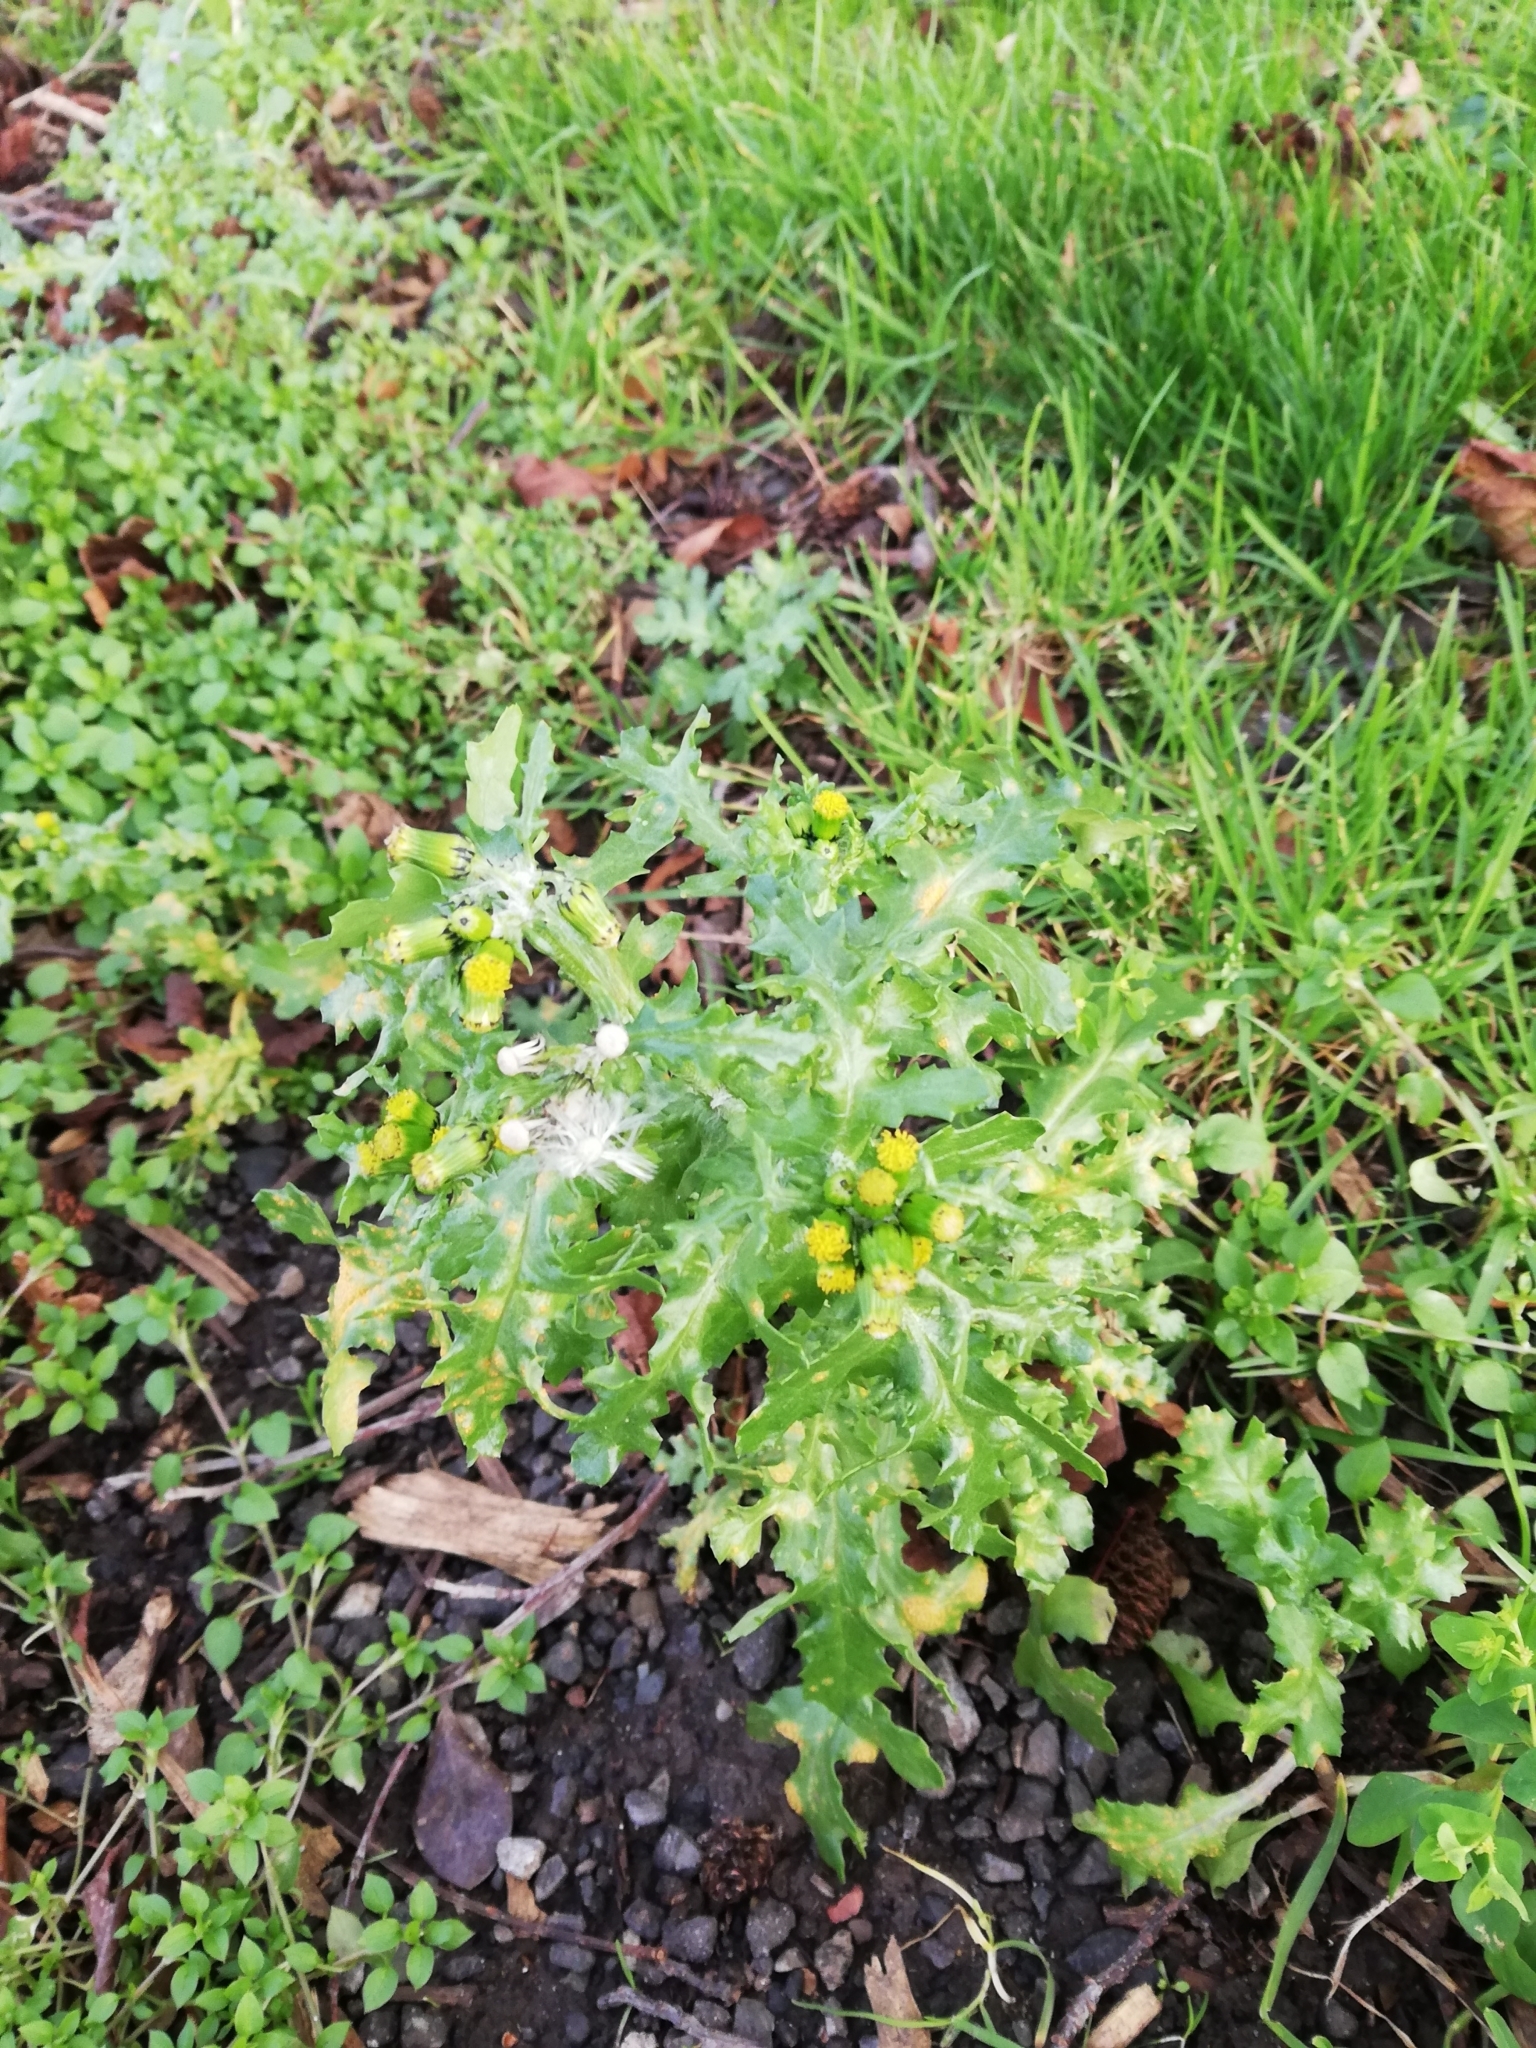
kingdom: Plantae
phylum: Tracheophyta
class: Magnoliopsida
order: Asterales
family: Asteraceae
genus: Senecio
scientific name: Senecio vulgaris
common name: Old-man-in-the-spring
